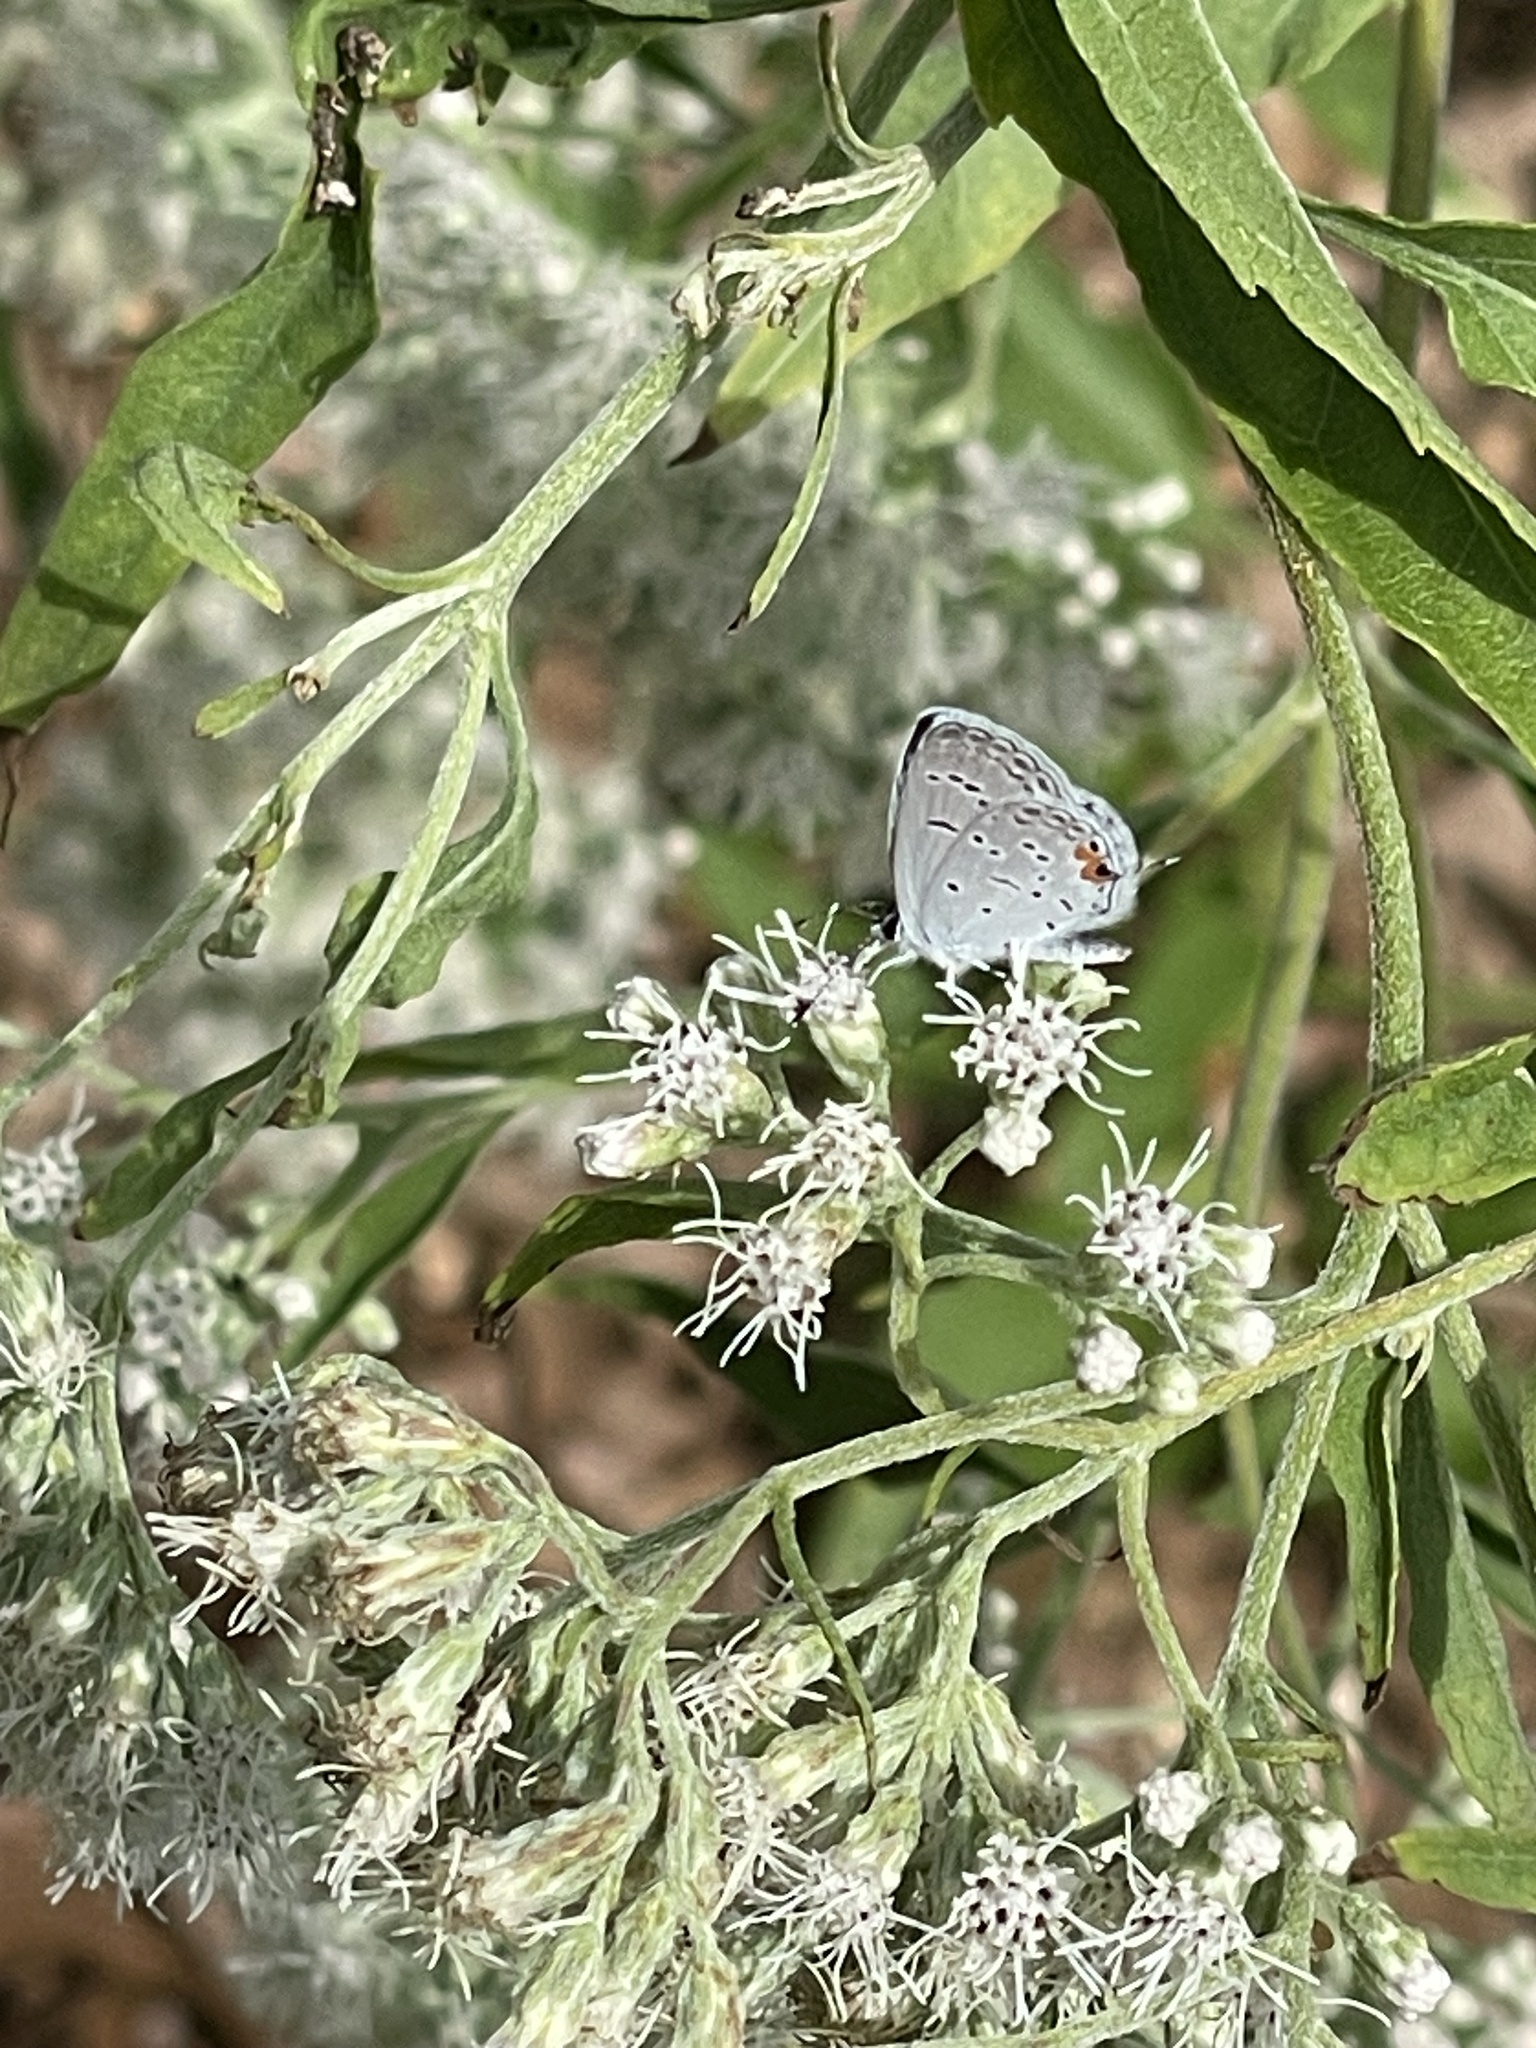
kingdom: Animalia
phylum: Arthropoda
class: Insecta
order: Lepidoptera
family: Lycaenidae
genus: Elkalyce
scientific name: Elkalyce comyntas
